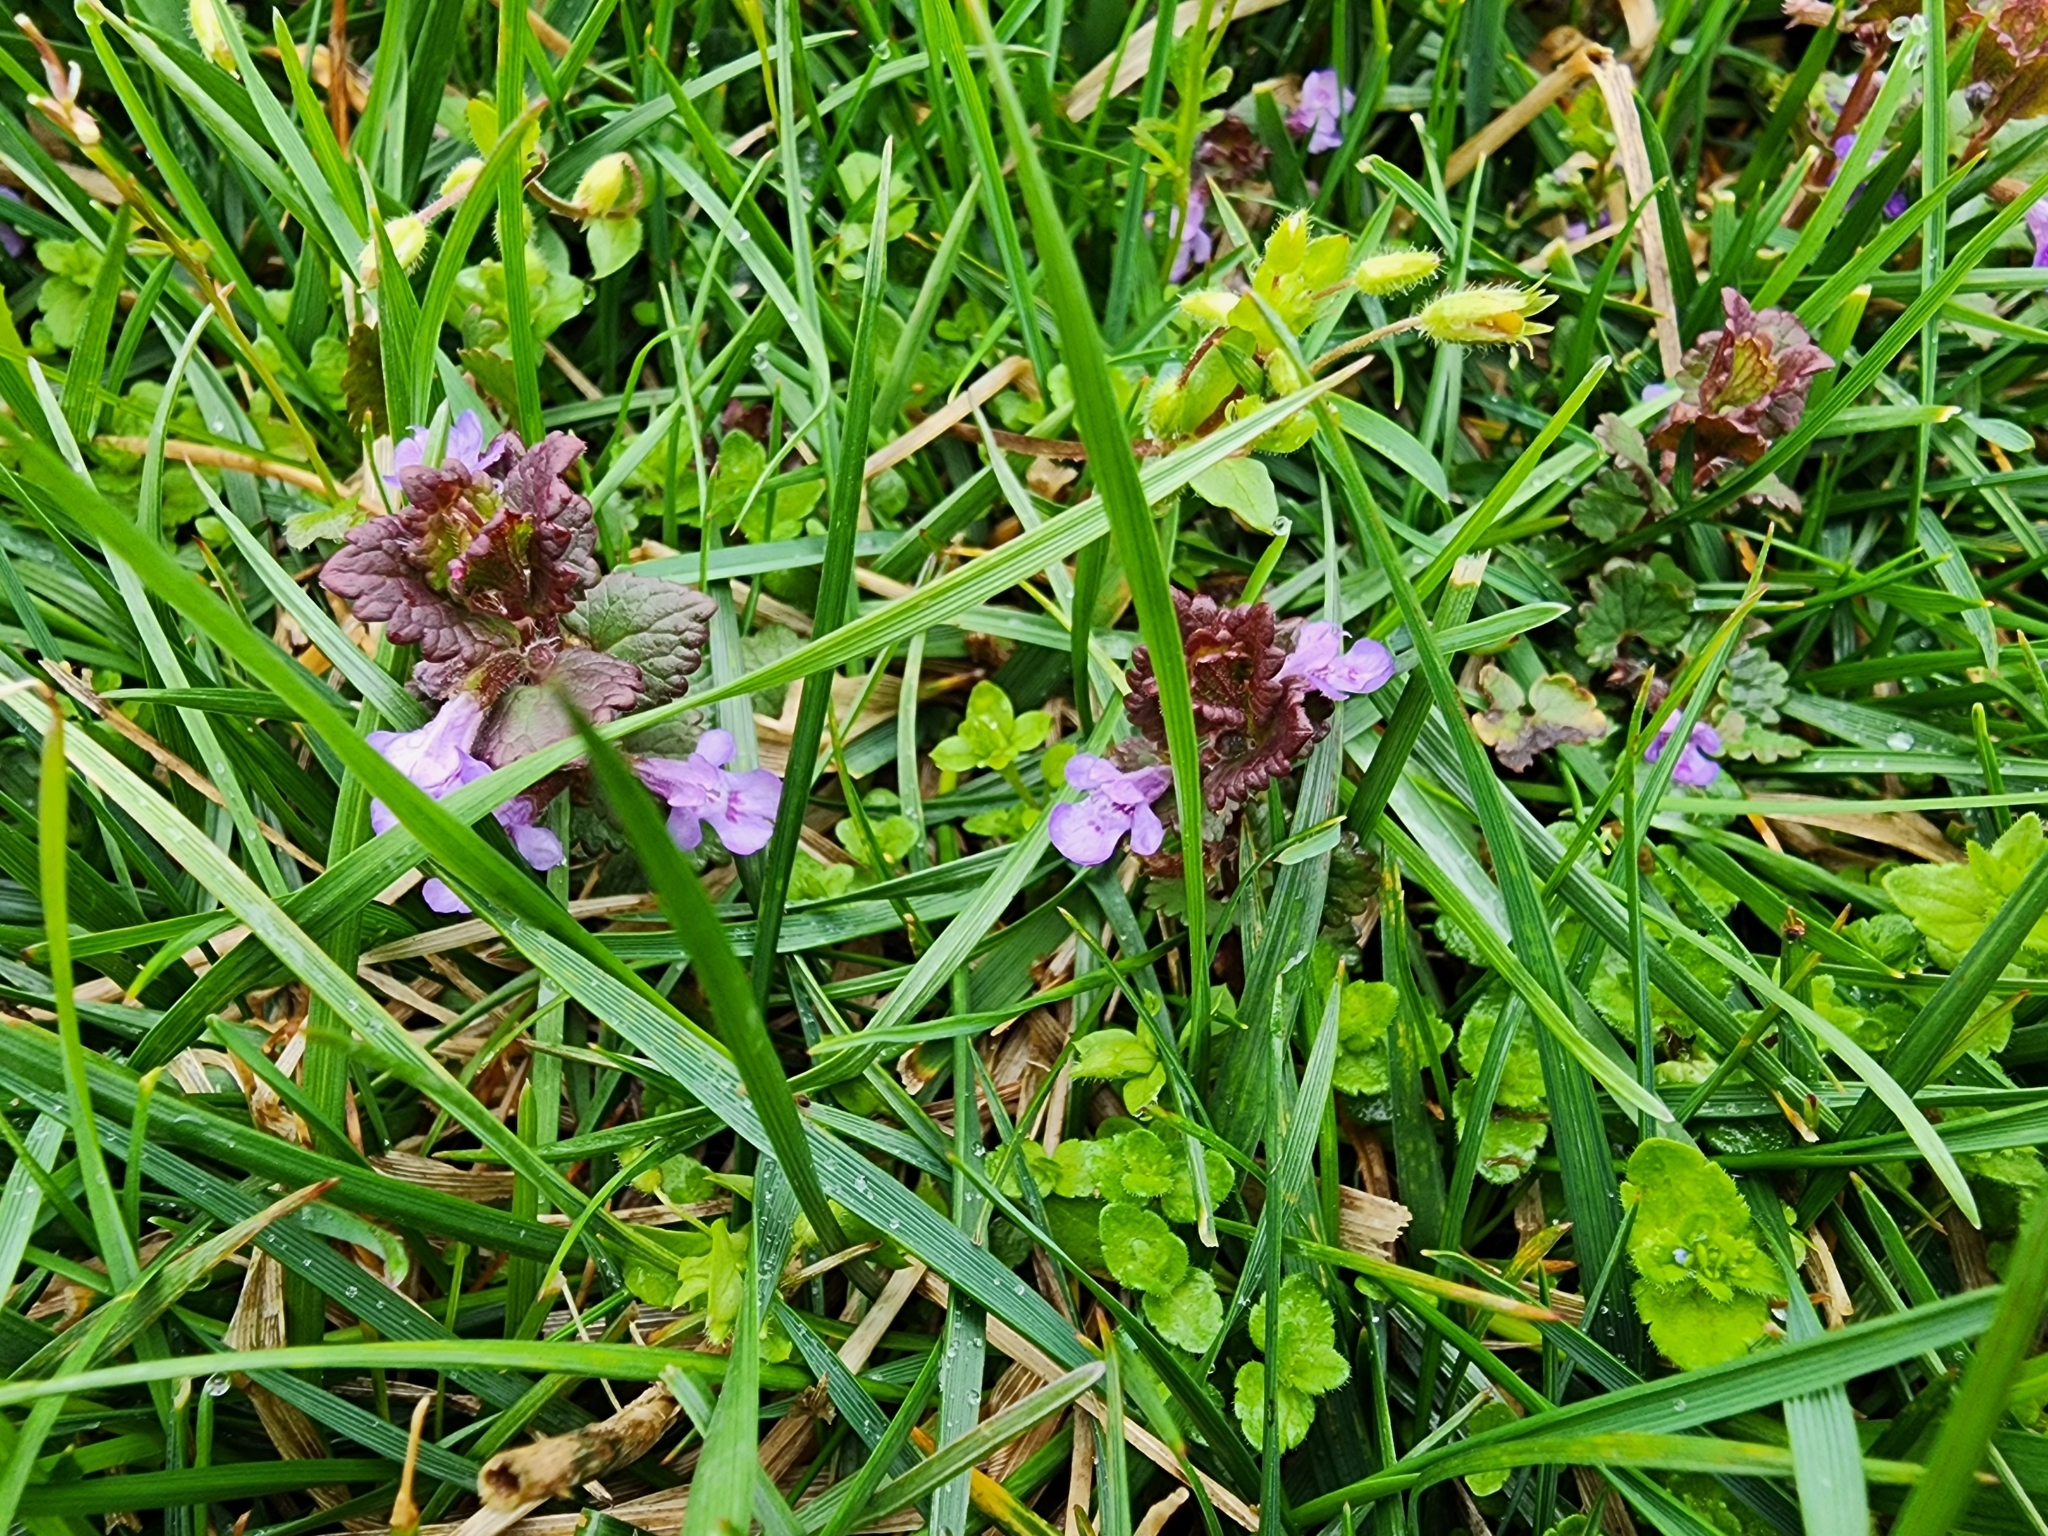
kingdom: Plantae
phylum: Tracheophyta
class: Magnoliopsida
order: Lamiales
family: Lamiaceae
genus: Glechoma
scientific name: Glechoma hederacea
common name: Ground ivy
